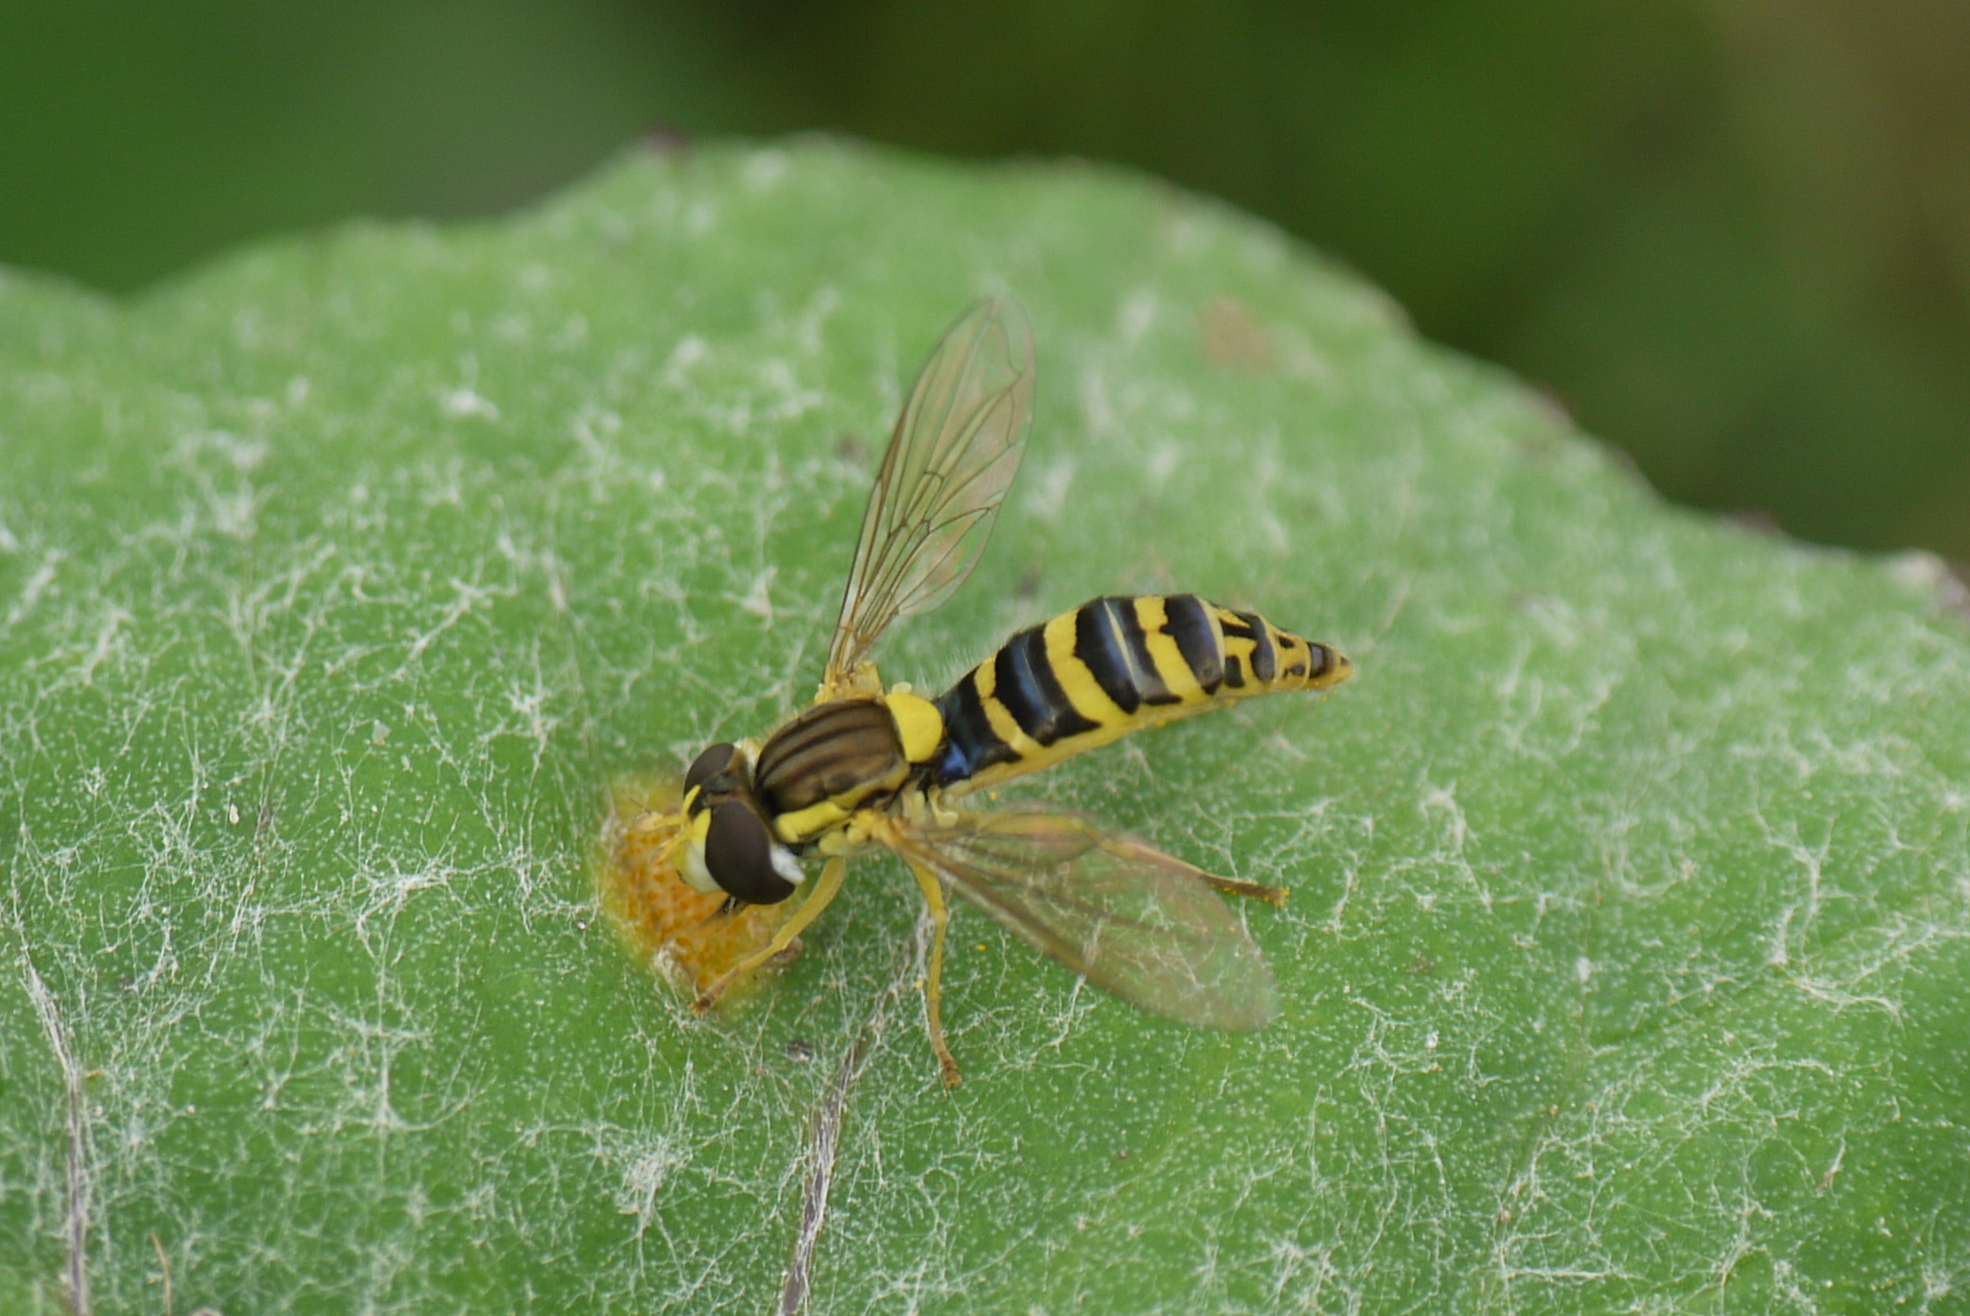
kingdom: Animalia
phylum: Arthropoda
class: Insecta
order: Diptera
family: Syrphidae
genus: Sphaerophoria
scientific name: Sphaerophoria
